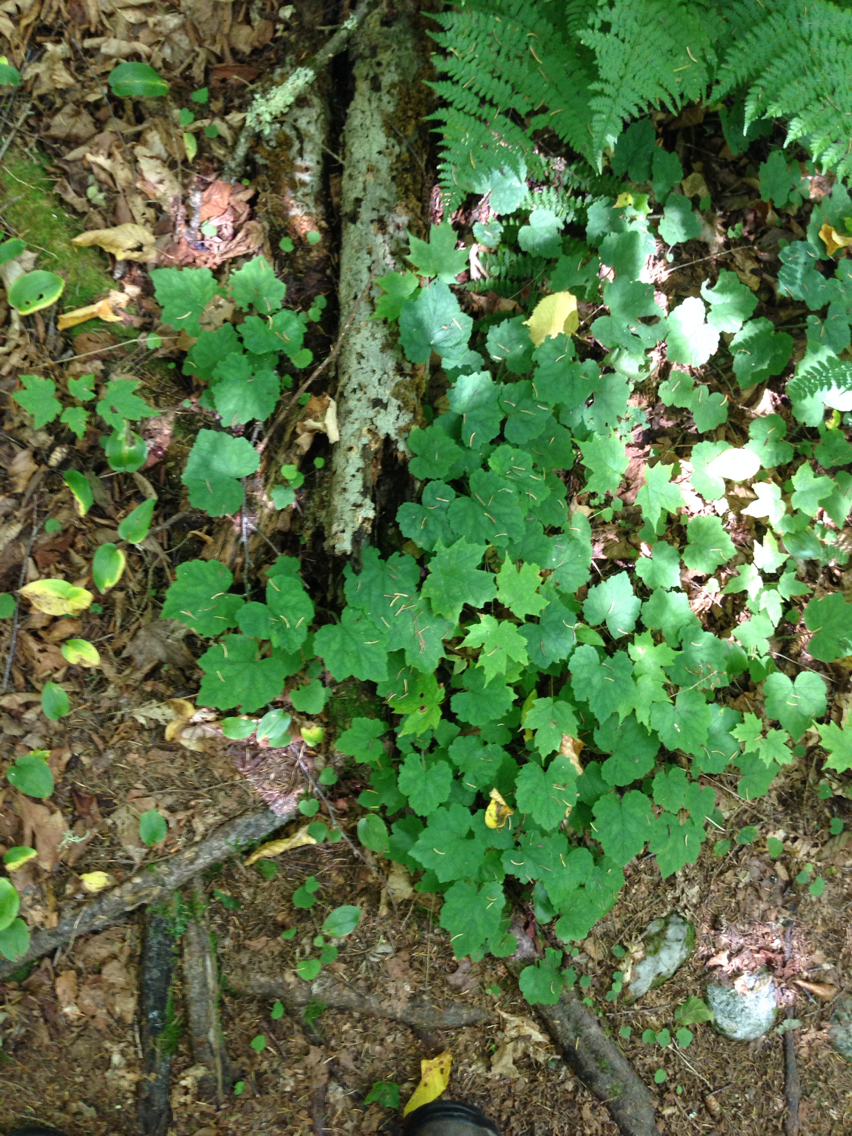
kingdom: Plantae
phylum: Tracheophyta
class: Magnoliopsida
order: Saxifragales
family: Saxifragaceae
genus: Tiarella
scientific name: Tiarella stolonifera
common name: Stoloniferous foamflower
